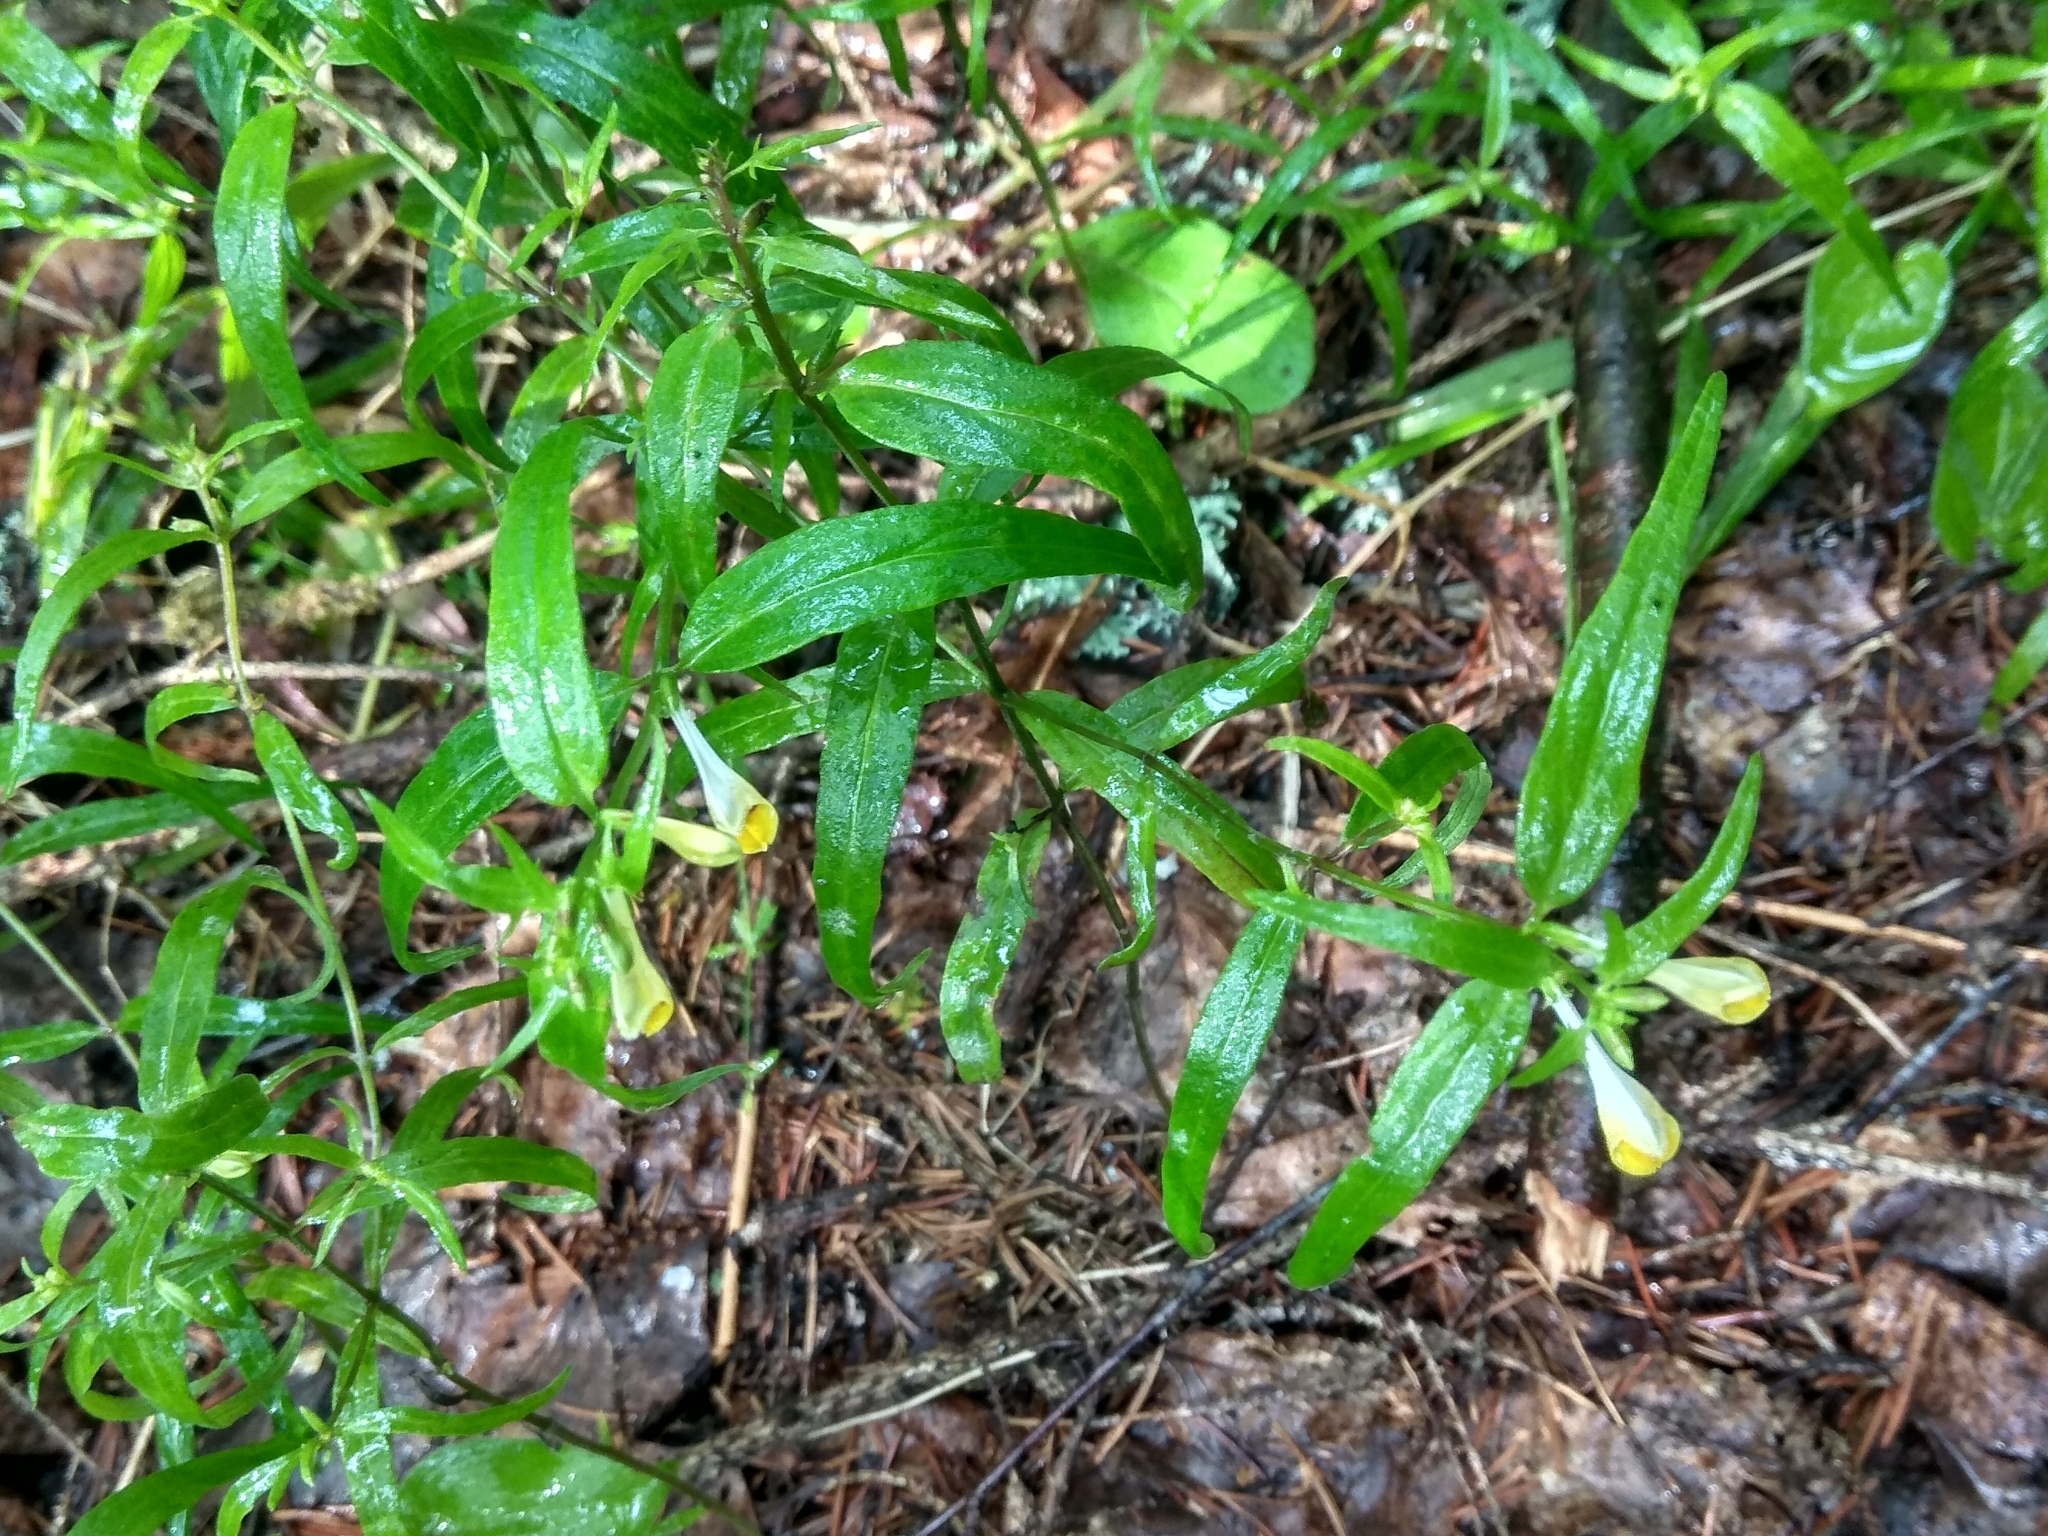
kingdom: Plantae
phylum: Tracheophyta
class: Magnoliopsida
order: Lamiales
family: Orobanchaceae
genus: Melampyrum
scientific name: Melampyrum pratense
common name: Common cow-wheat
